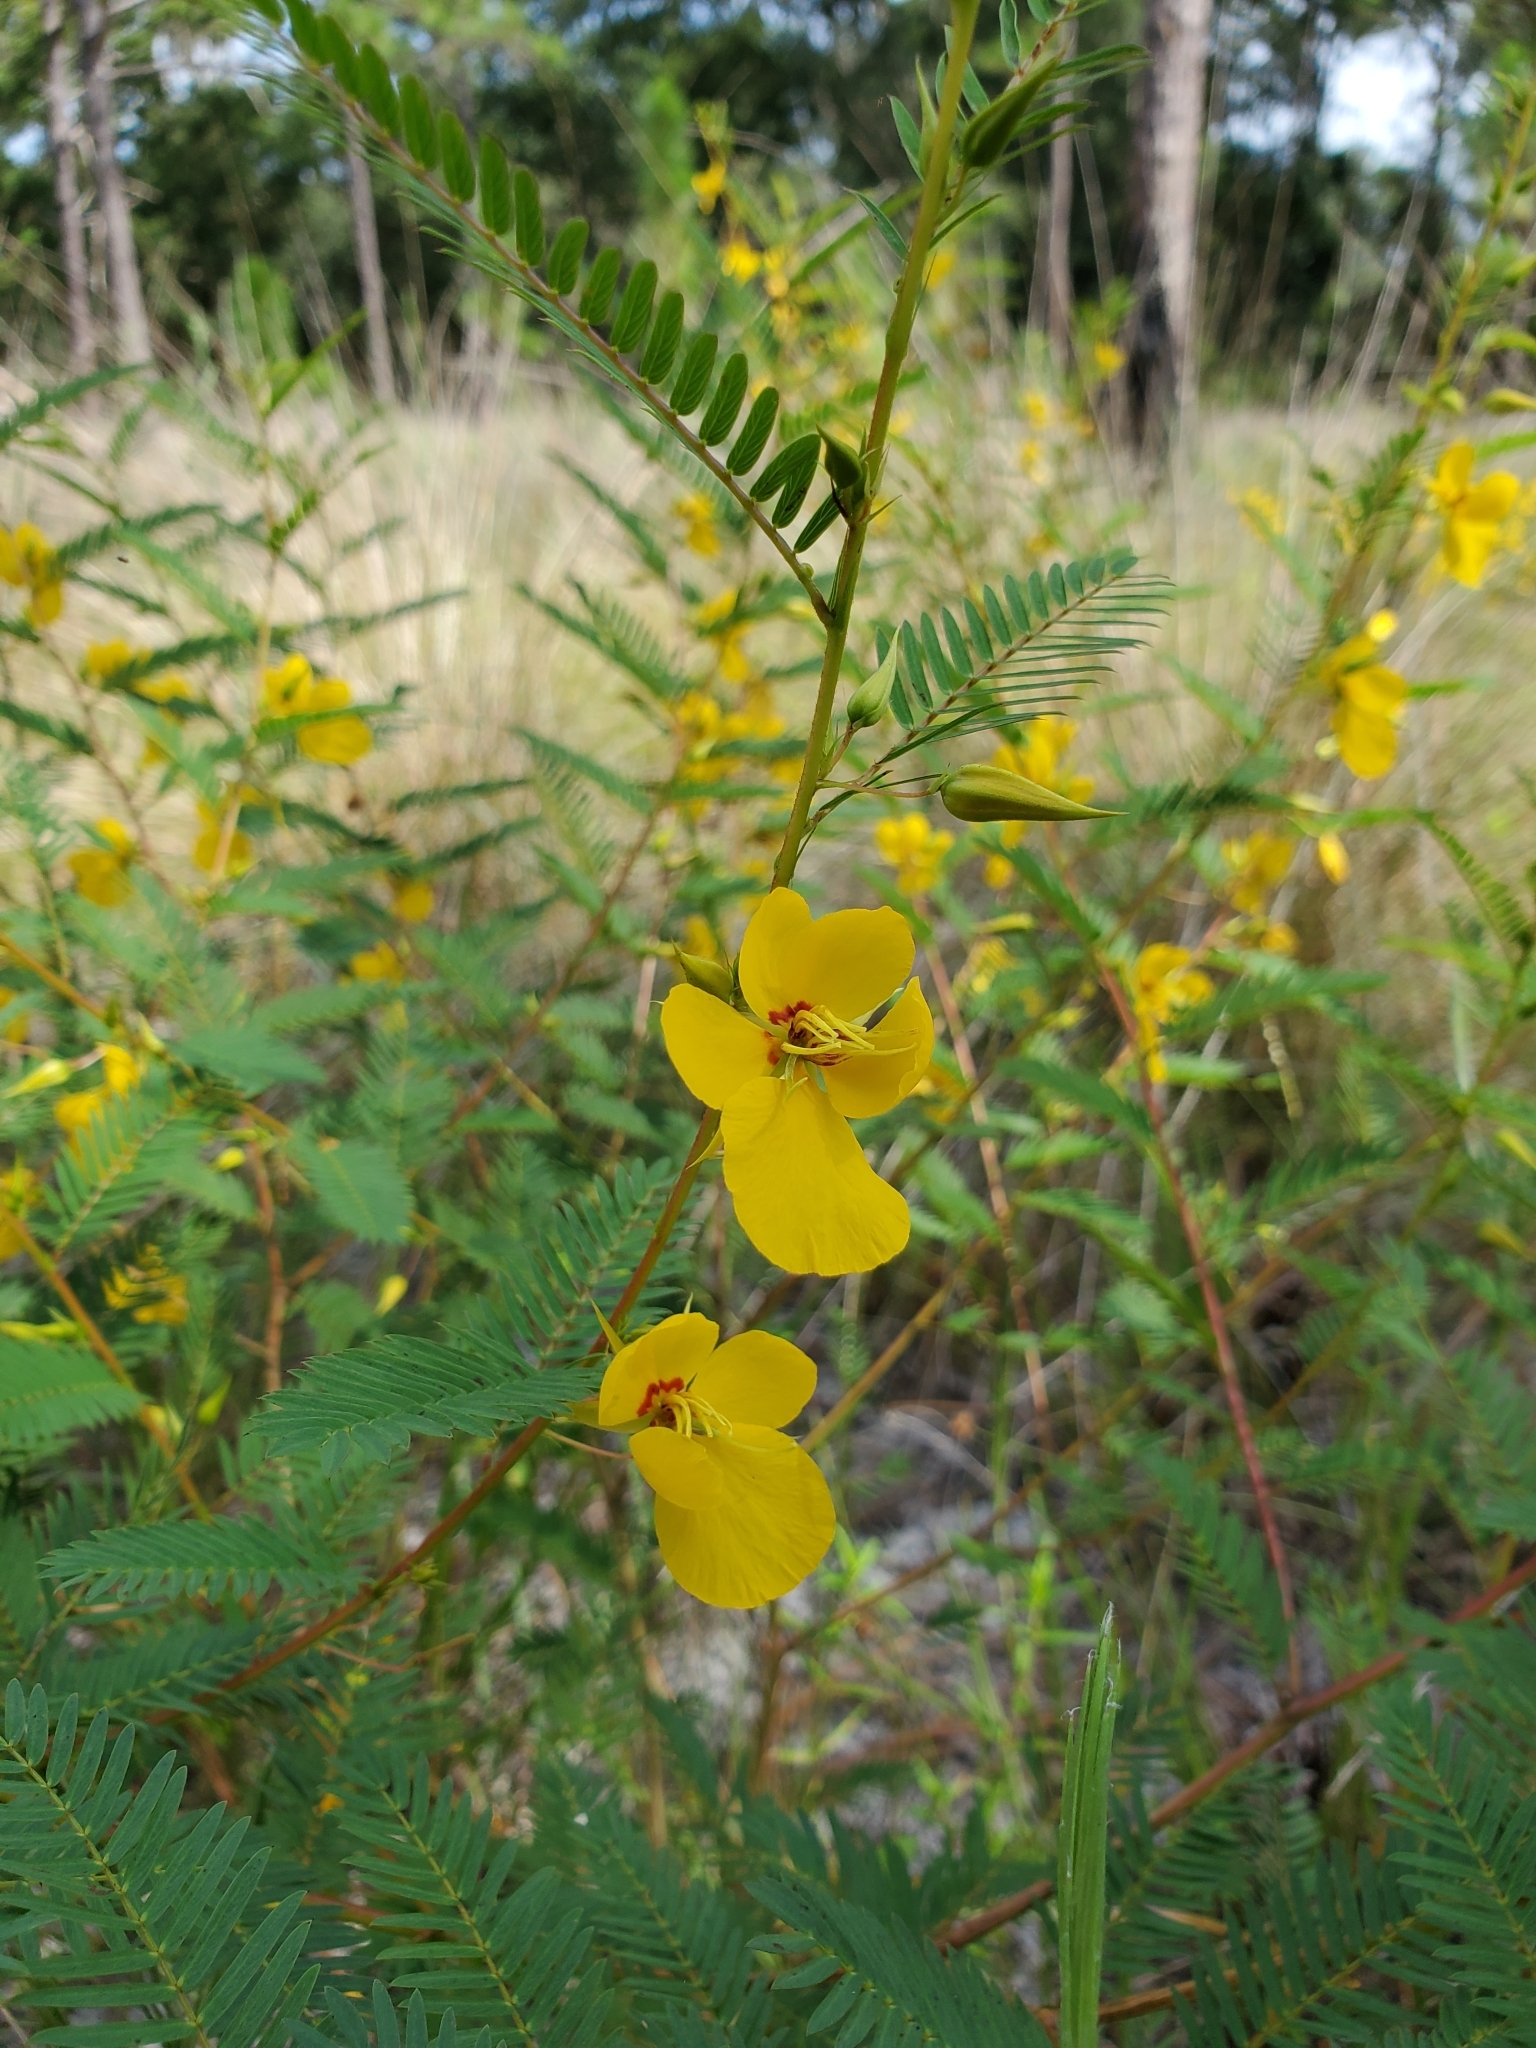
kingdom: Plantae
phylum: Tracheophyta
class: Magnoliopsida
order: Fabales
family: Fabaceae
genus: Chamaecrista
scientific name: Chamaecrista fasciculata
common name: Golden cassia
